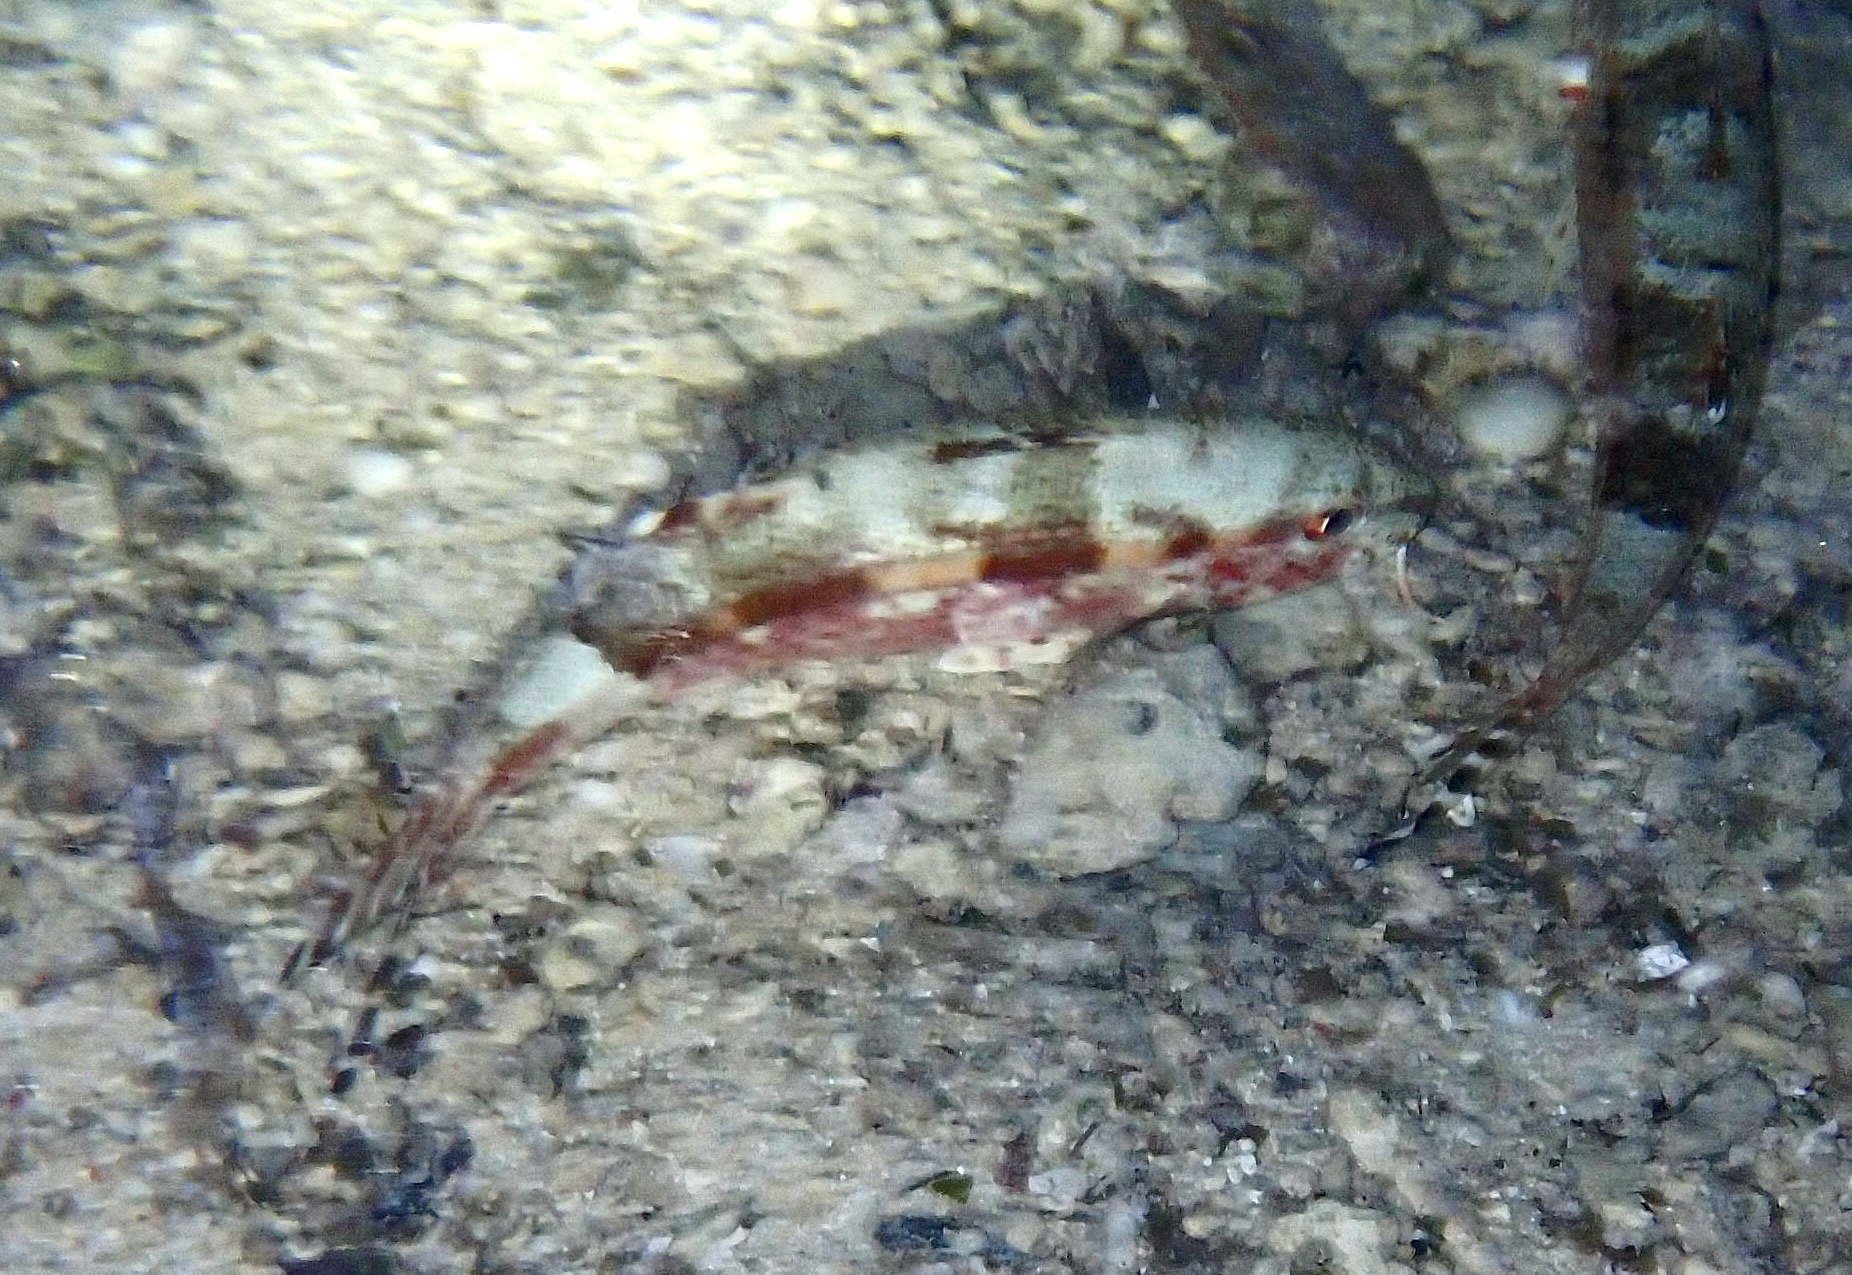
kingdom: Animalia
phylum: Chordata
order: Perciformes
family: Mullidae
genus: Upeneus
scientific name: Upeneus tragula
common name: Freckled goatfish
